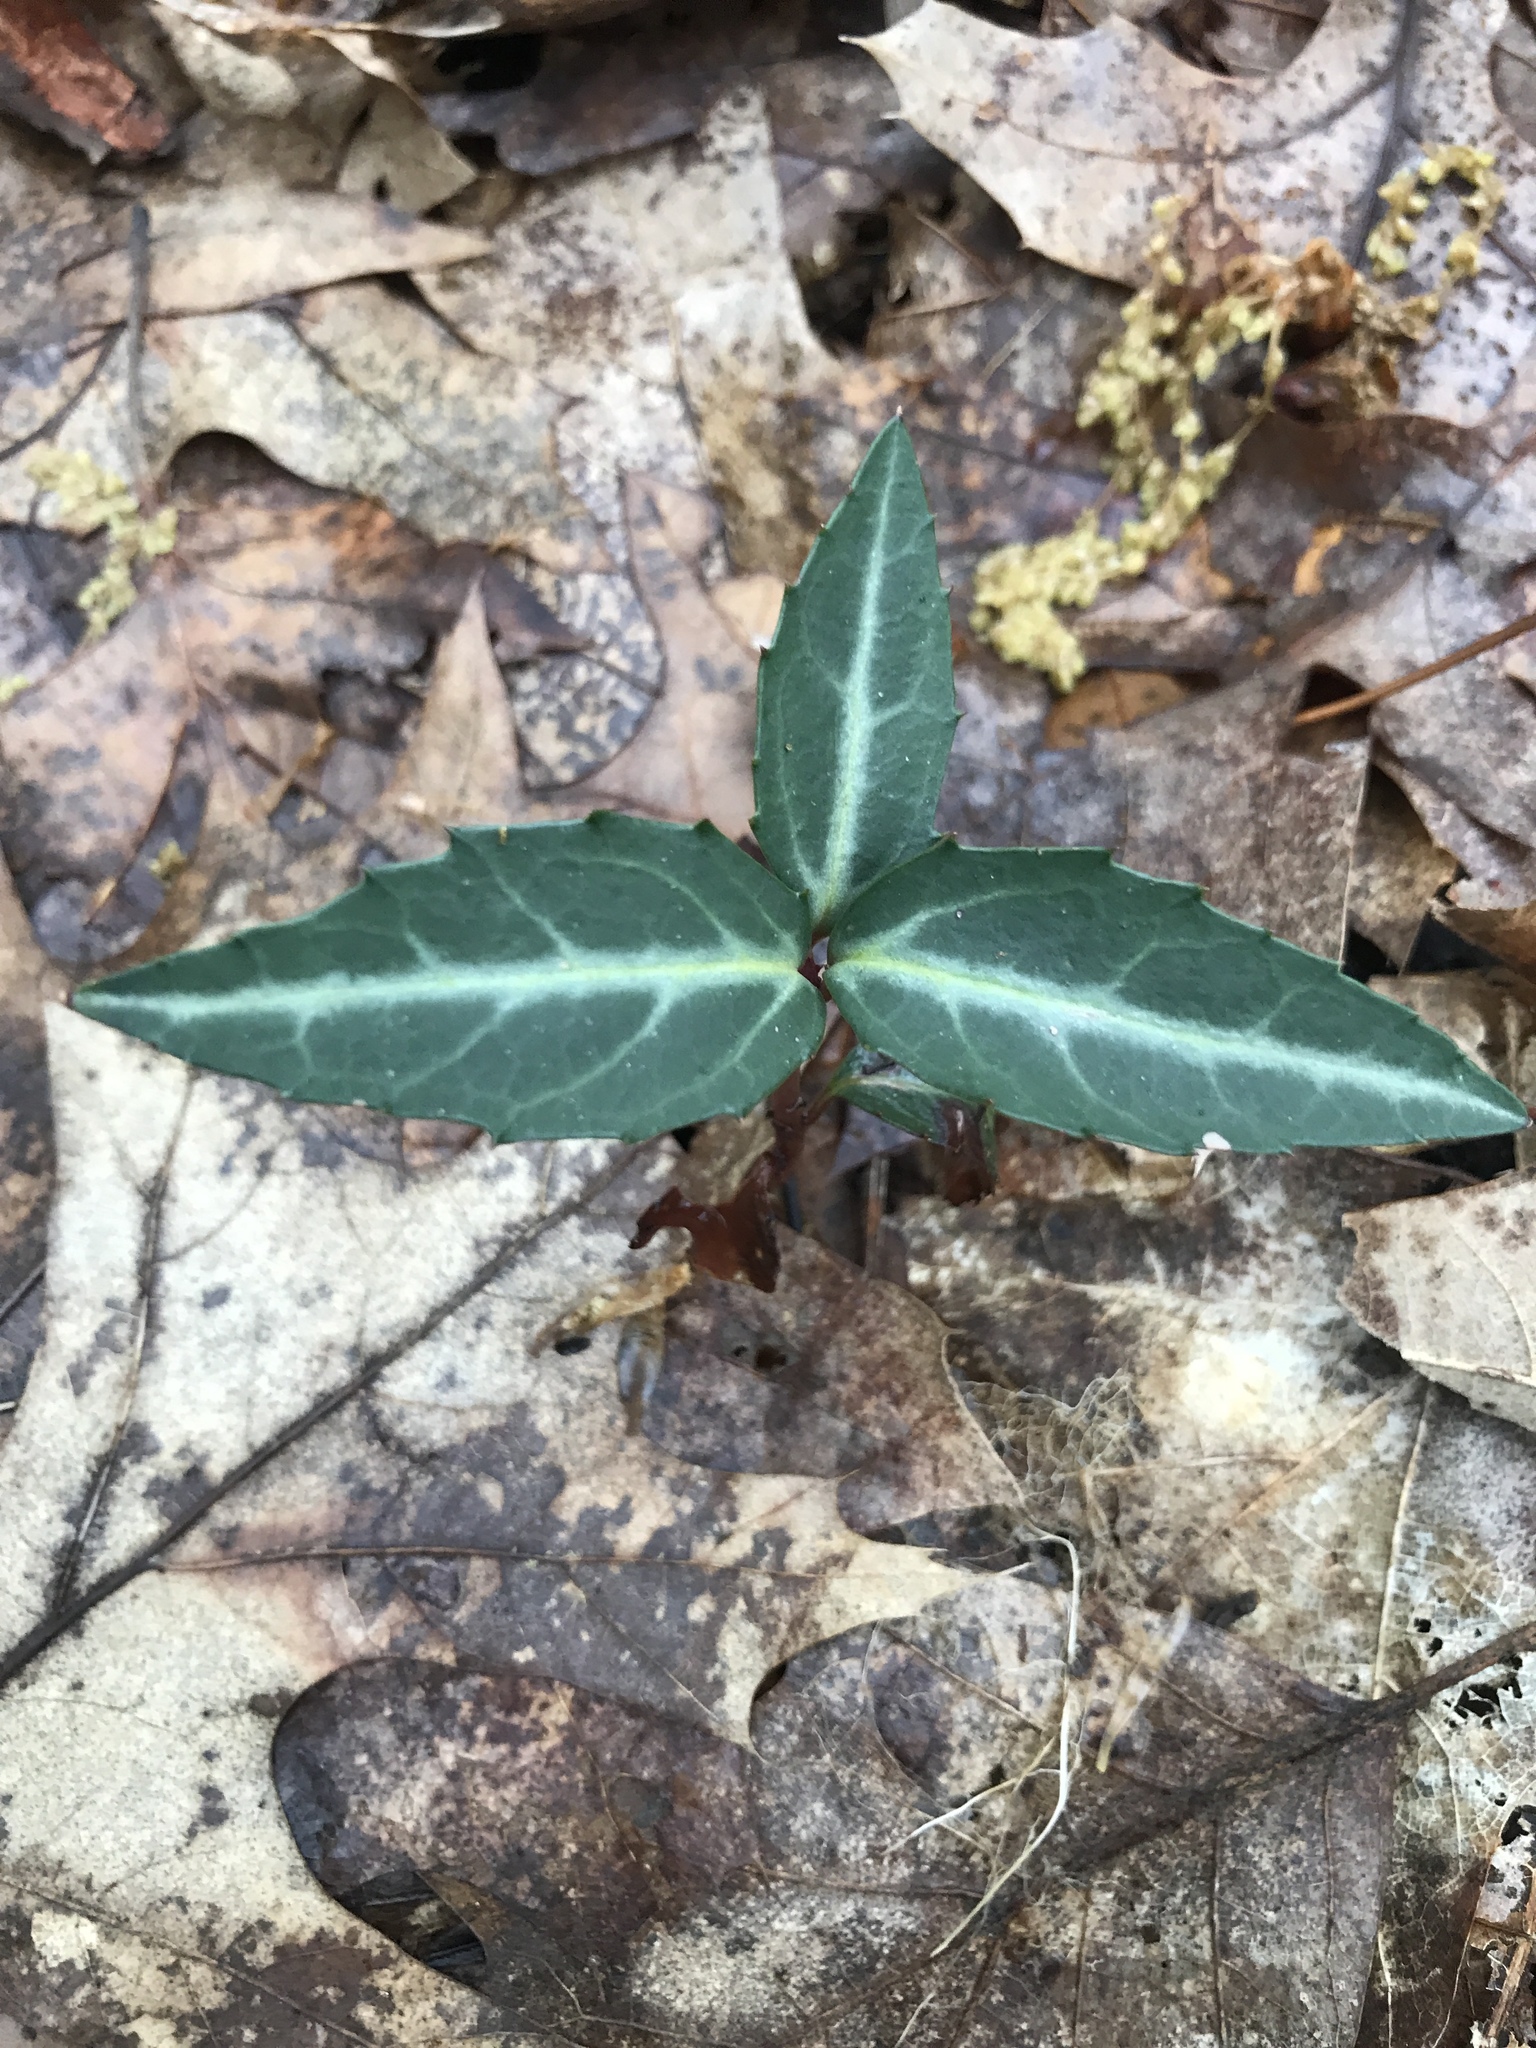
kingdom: Plantae
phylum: Tracheophyta
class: Magnoliopsida
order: Ericales
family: Ericaceae
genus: Chimaphila
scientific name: Chimaphila maculata
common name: Spotted pipsissewa
